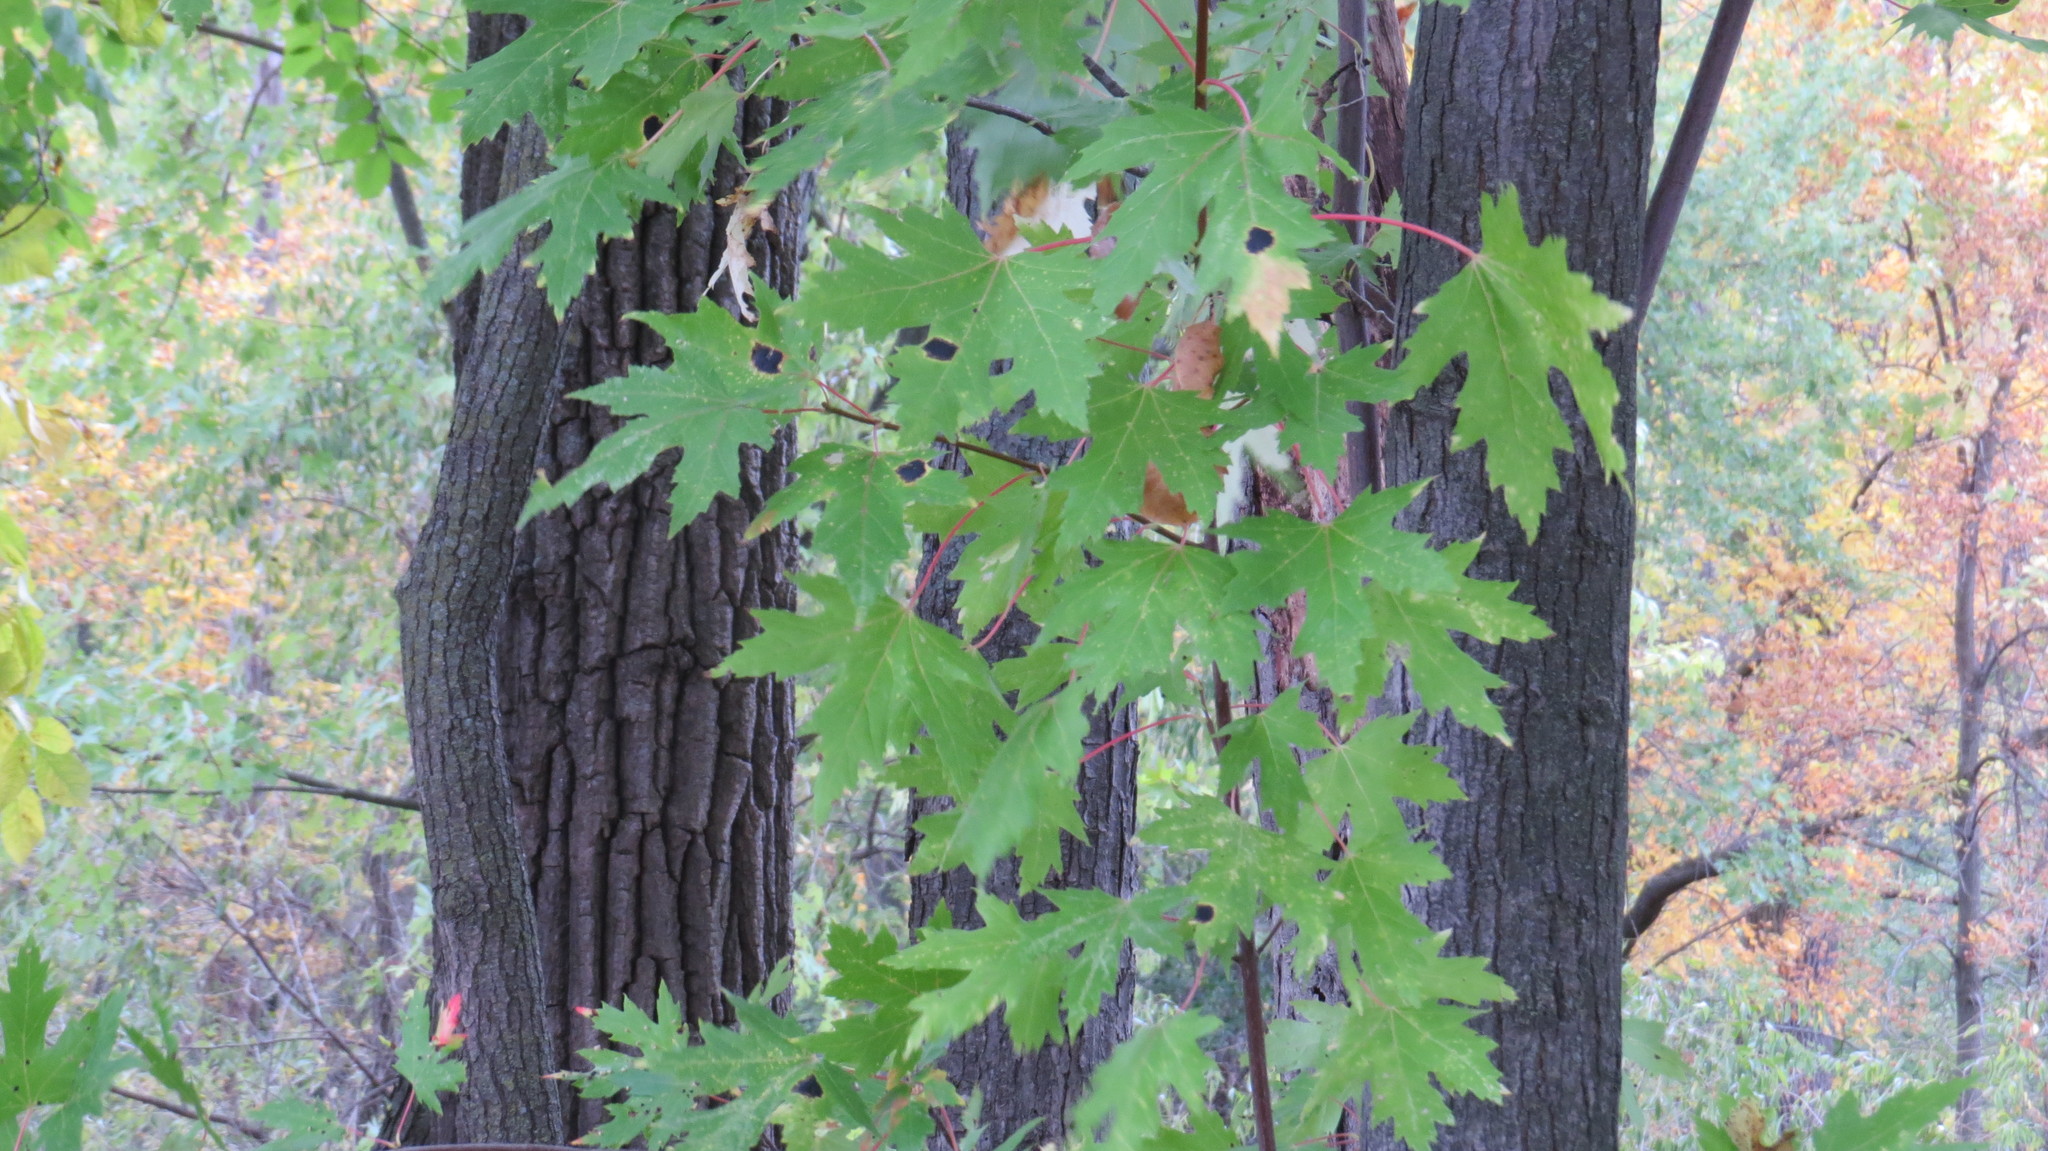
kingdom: Plantae
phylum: Tracheophyta
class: Magnoliopsida
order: Sapindales
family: Sapindaceae
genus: Acer
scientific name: Acer saccharinum
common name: Silver maple
